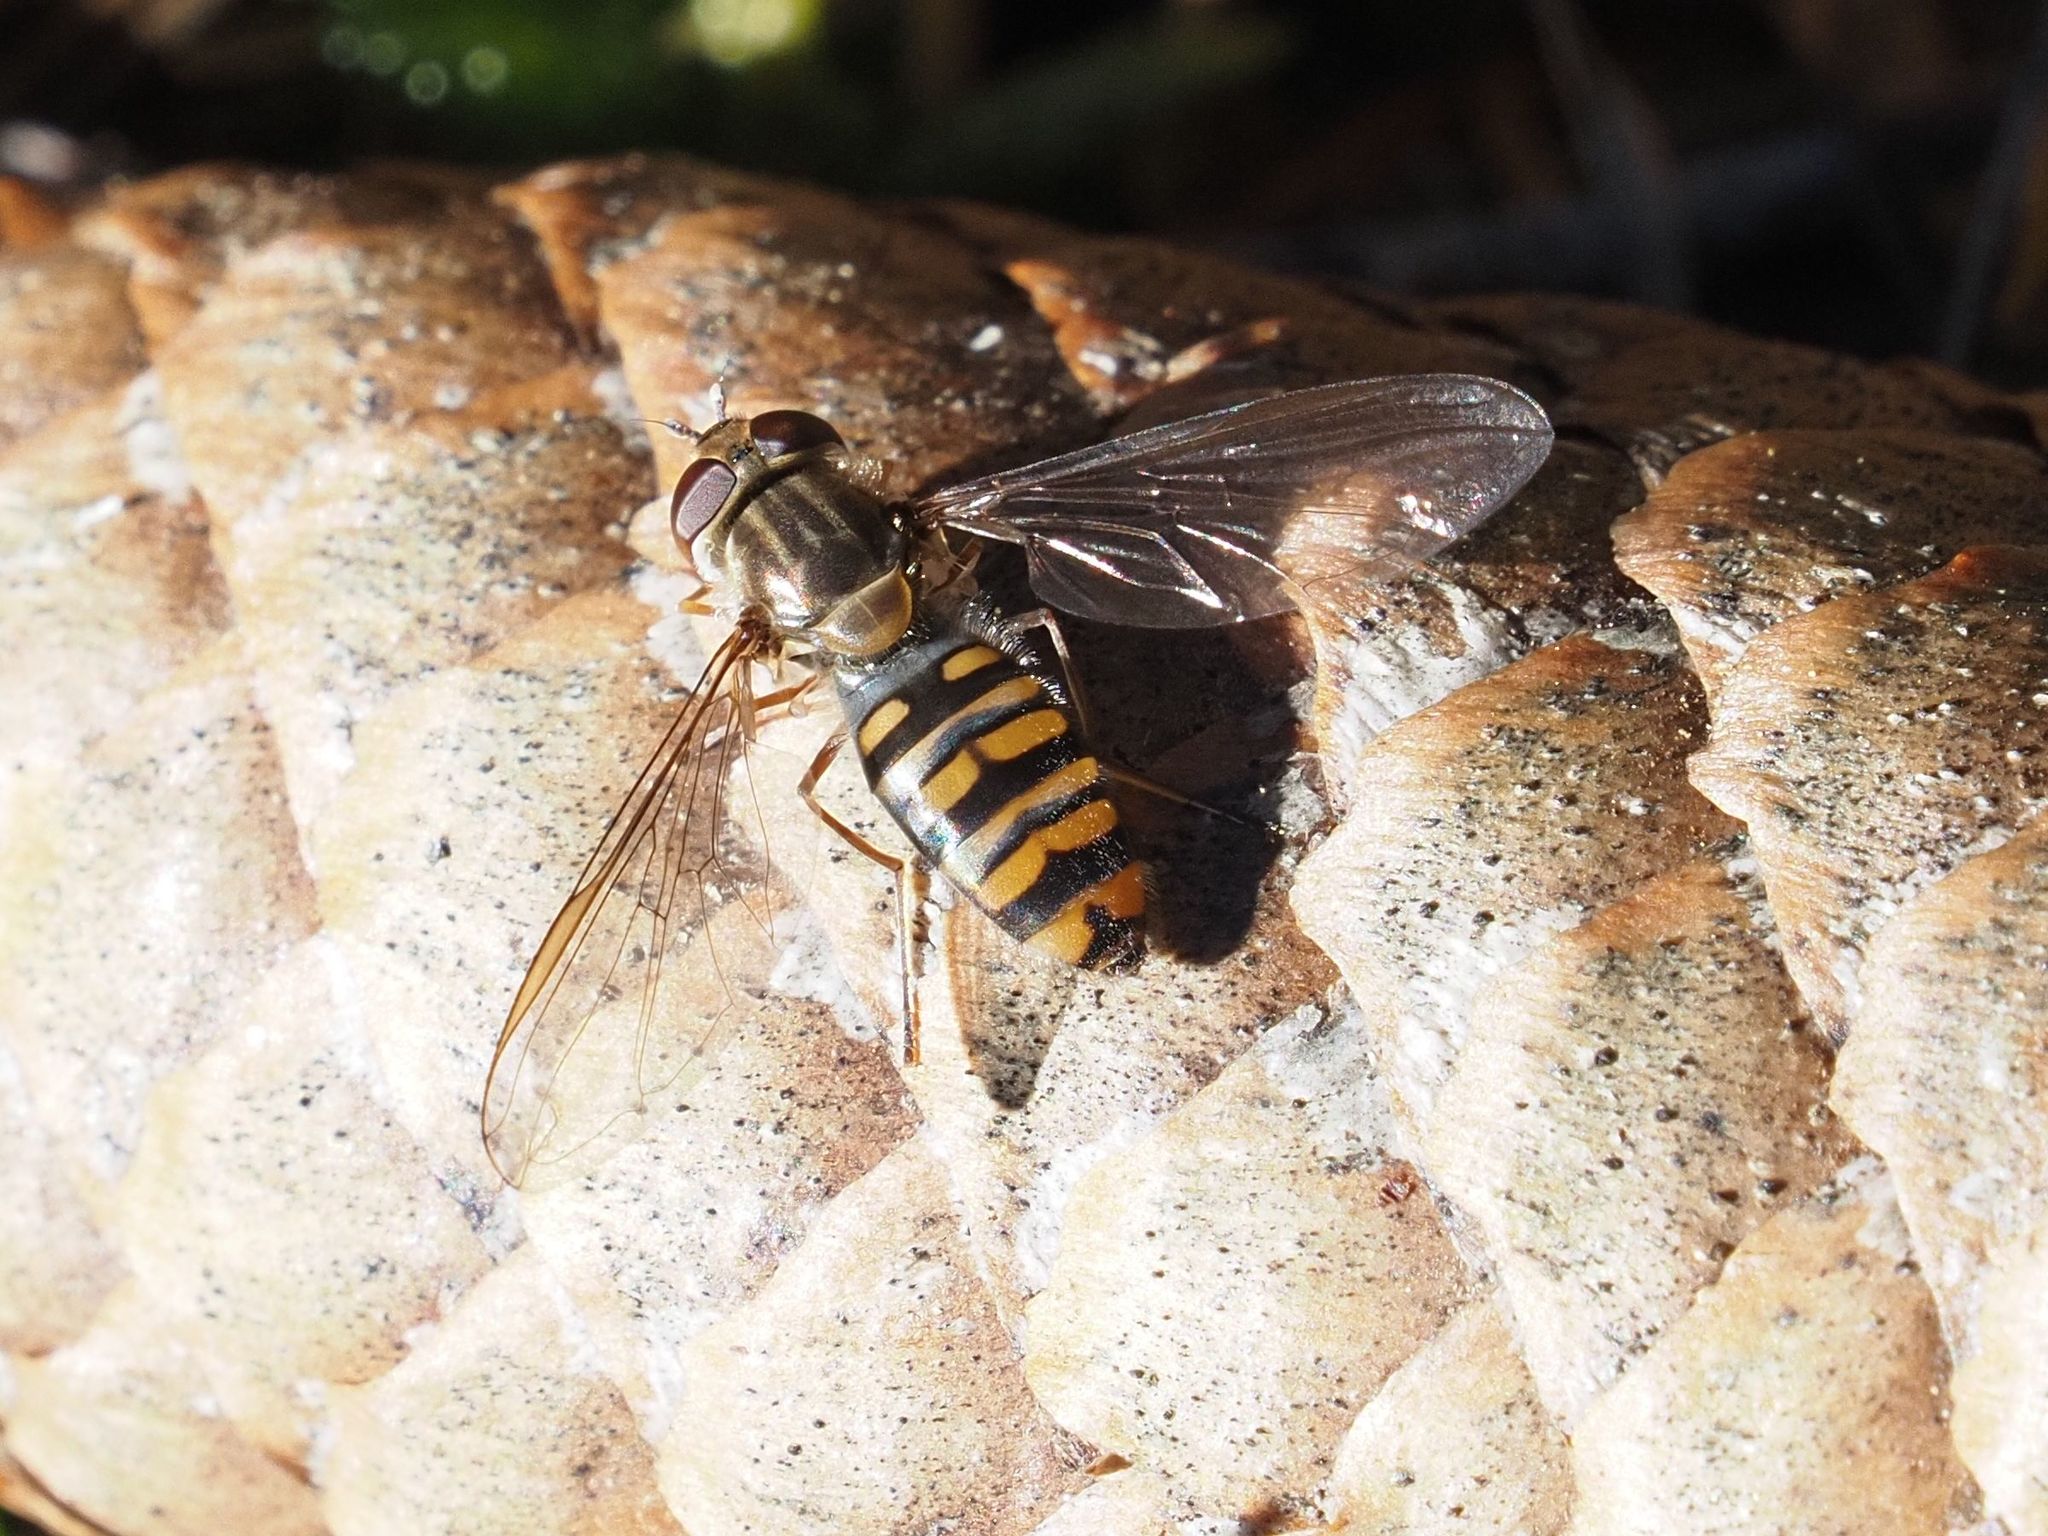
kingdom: Animalia
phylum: Arthropoda
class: Insecta
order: Diptera
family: Syrphidae
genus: Episyrphus
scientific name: Episyrphus balteatus
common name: Marmalade hoverfly
